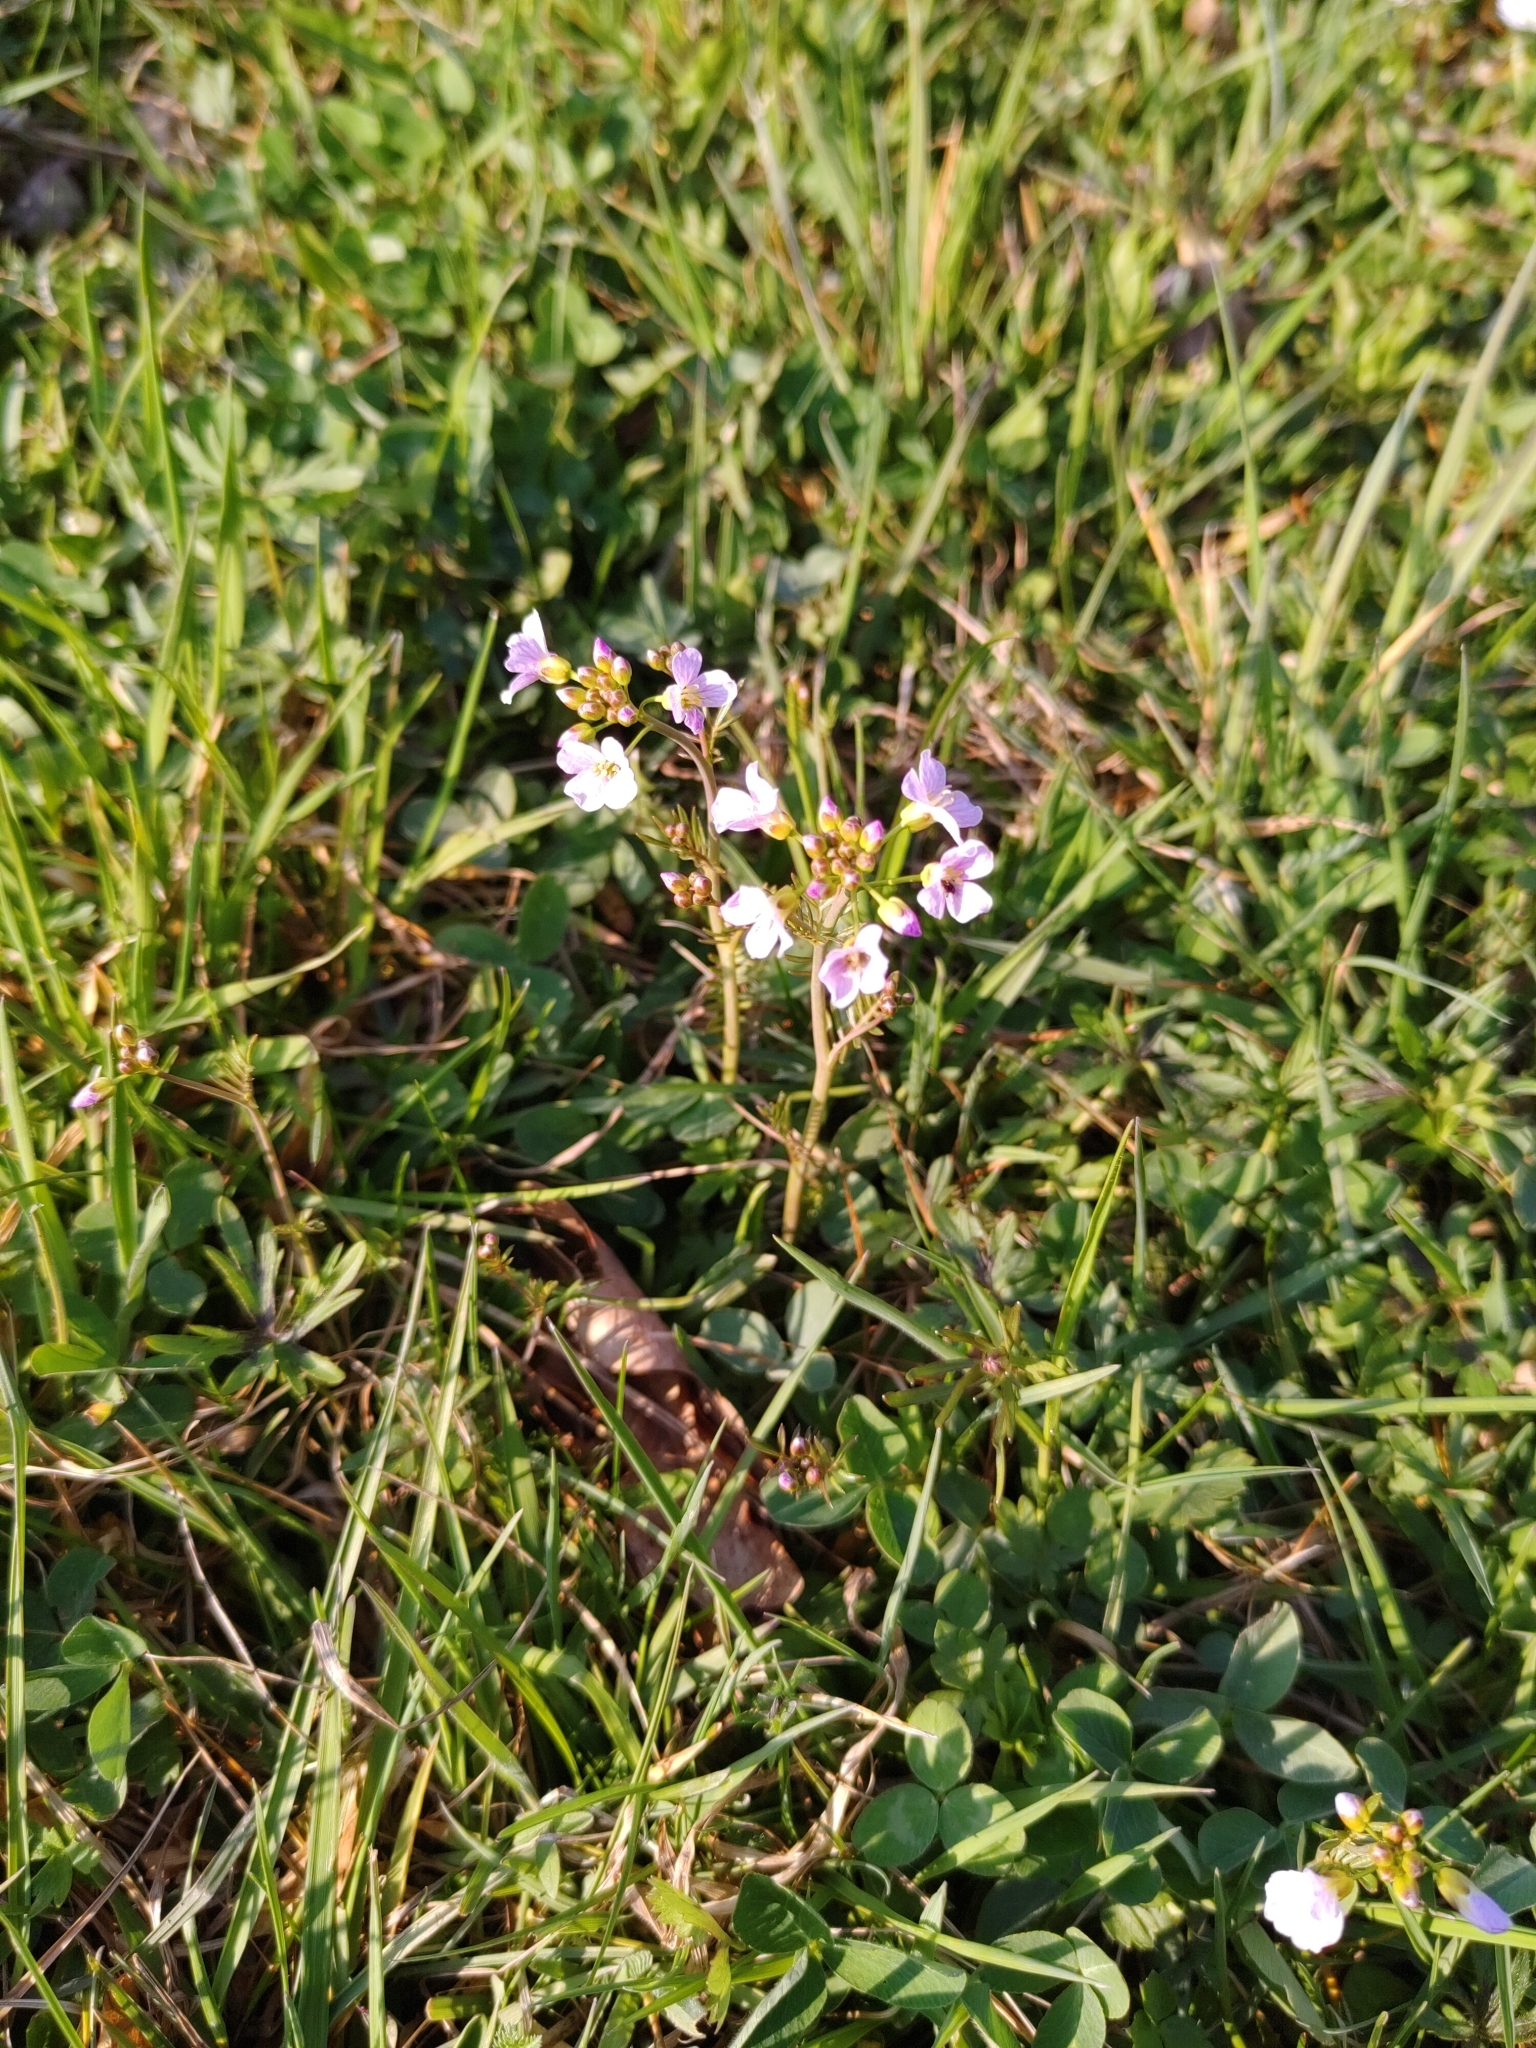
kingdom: Plantae
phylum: Tracheophyta
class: Magnoliopsida
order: Brassicales
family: Brassicaceae
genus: Cardamine
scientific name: Cardamine pratensis
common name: Cuckoo flower
